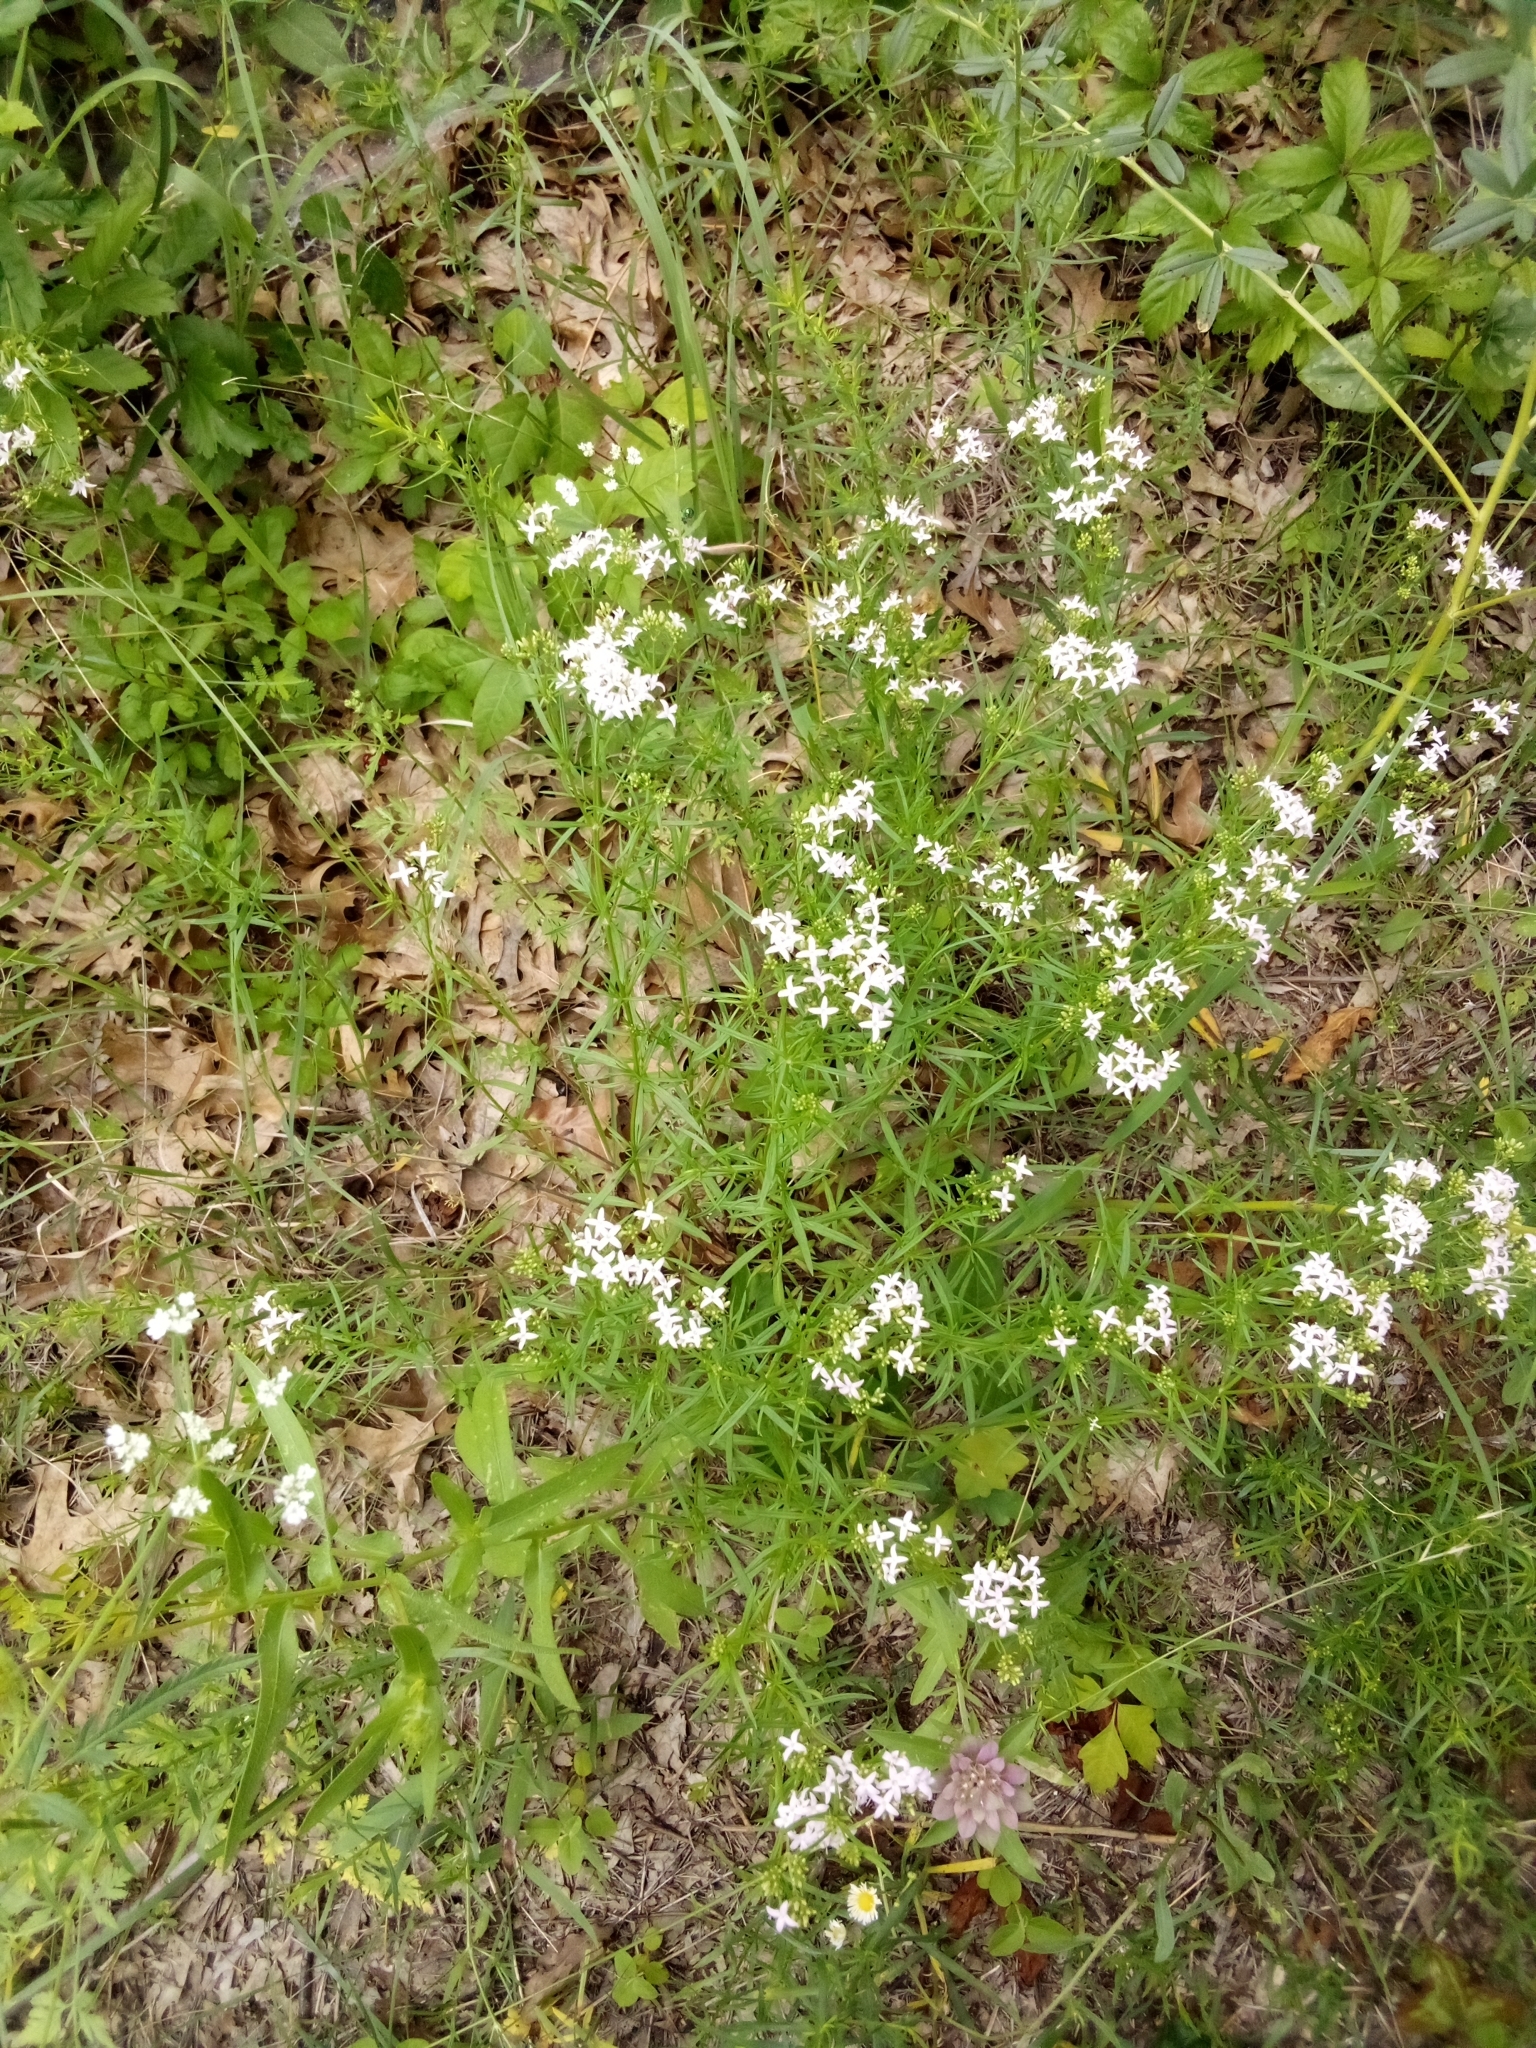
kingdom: Plantae
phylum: Tracheophyta
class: Magnoliopsida
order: Gentianales
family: Rubiaceae
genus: Stenaria
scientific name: Stenaria nigricans
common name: Diamondflowers
